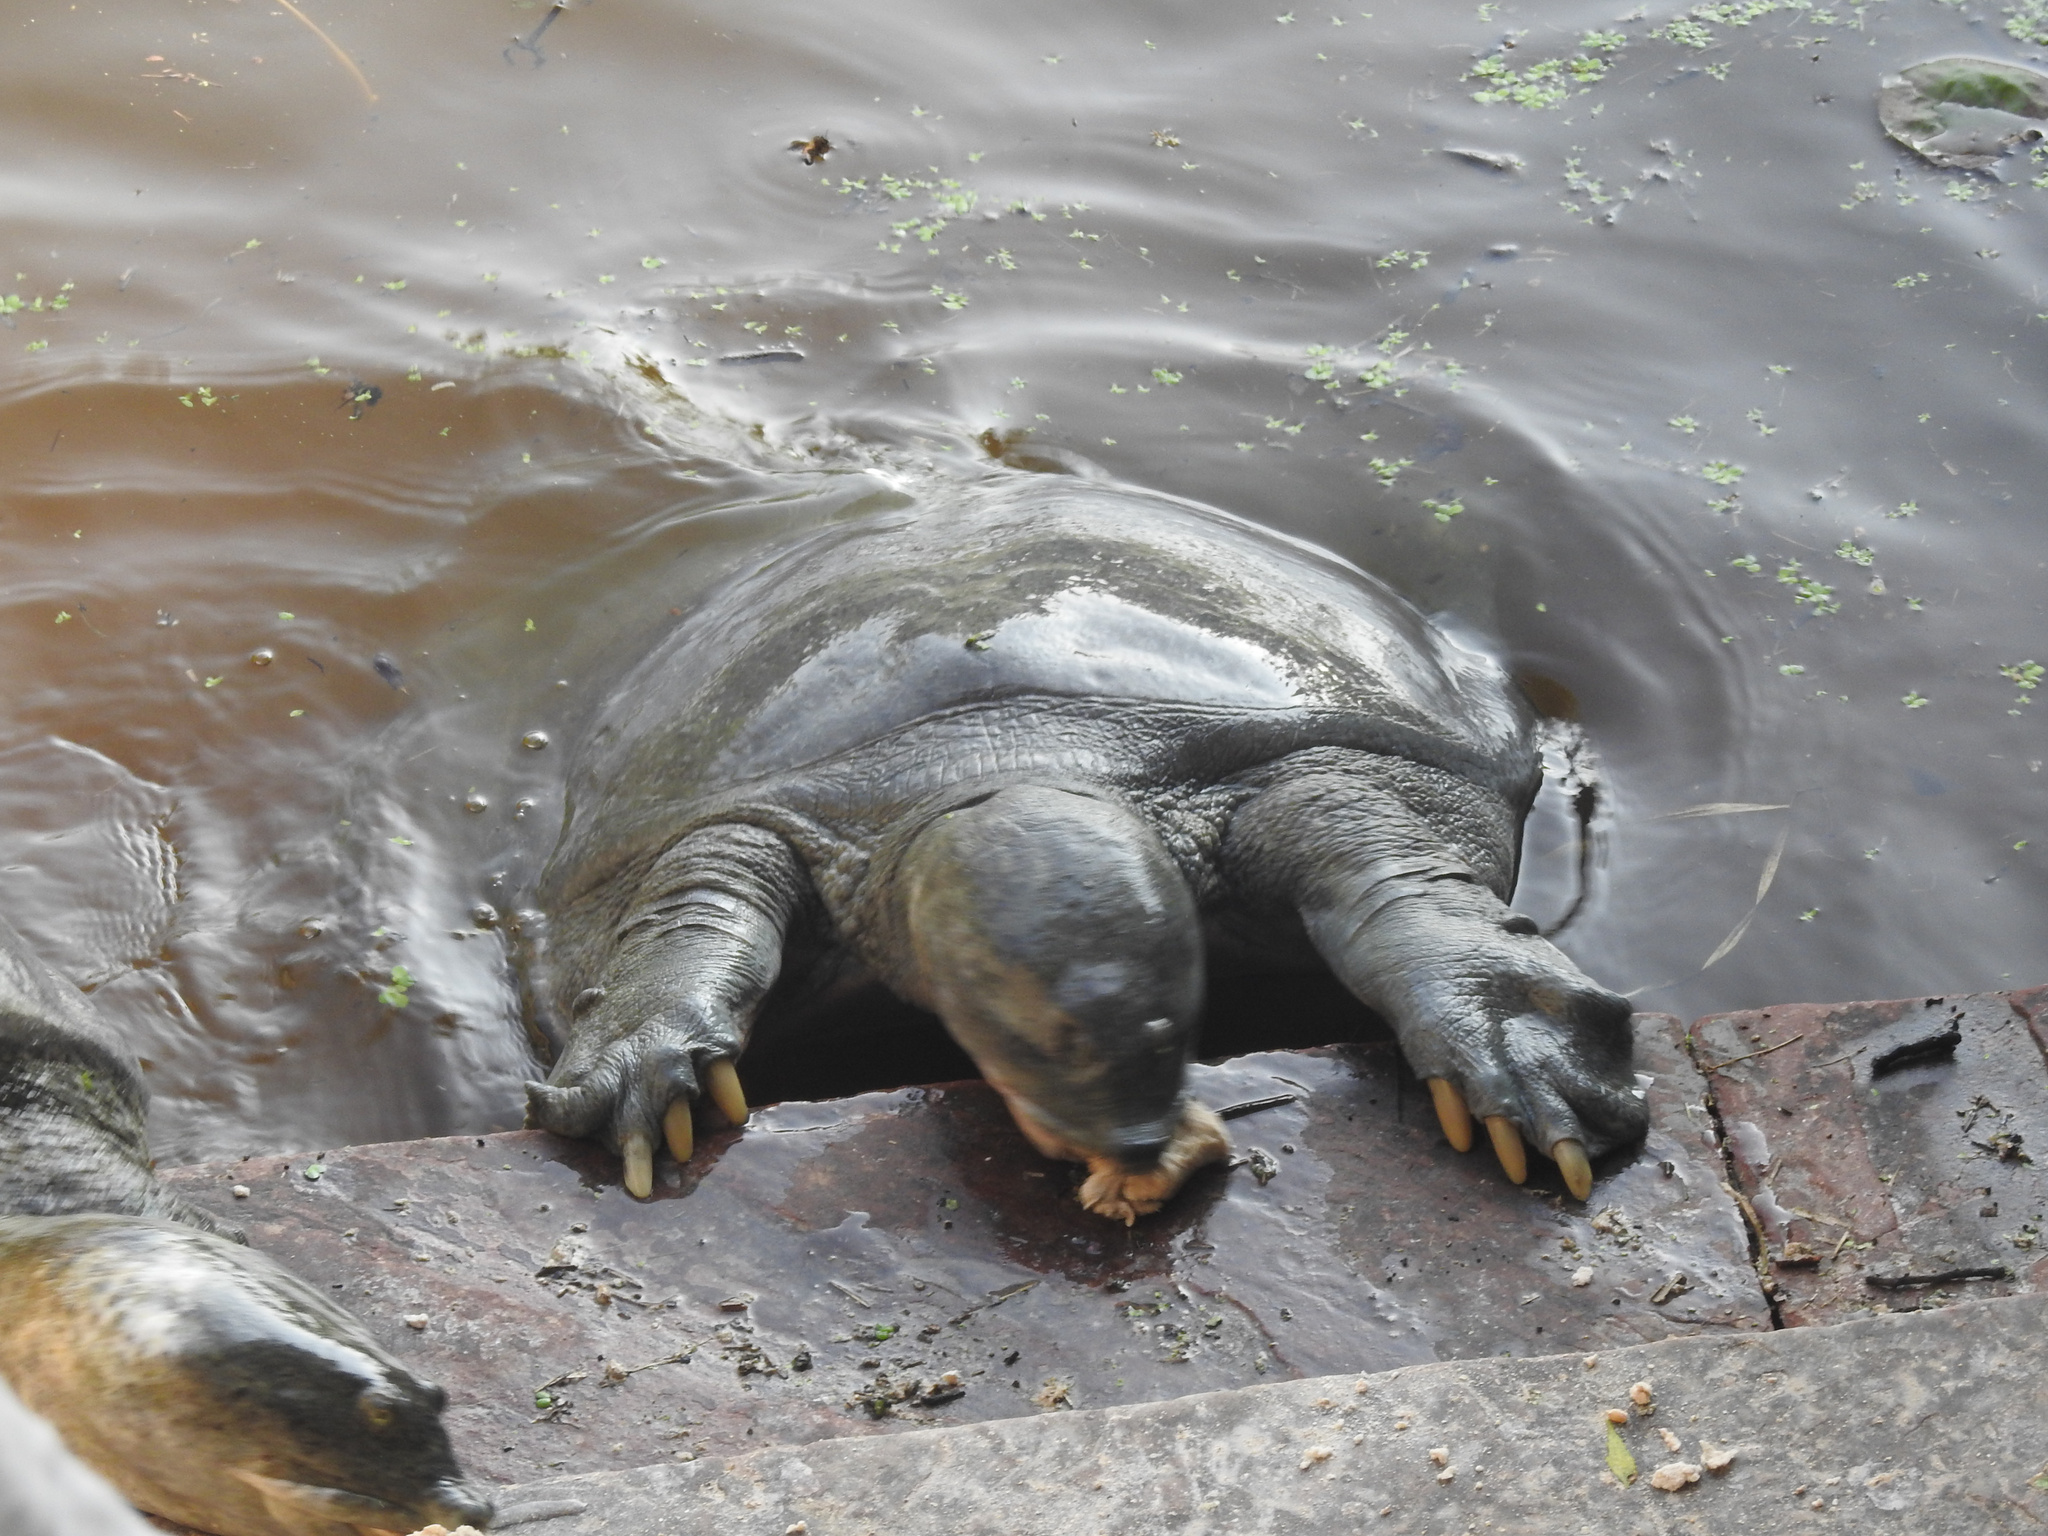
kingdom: Animalia
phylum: Chordata
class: Testudines
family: Trionychidae
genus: Nilssonia
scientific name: Nilssonia gangetica
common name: Indian softshell turtle
